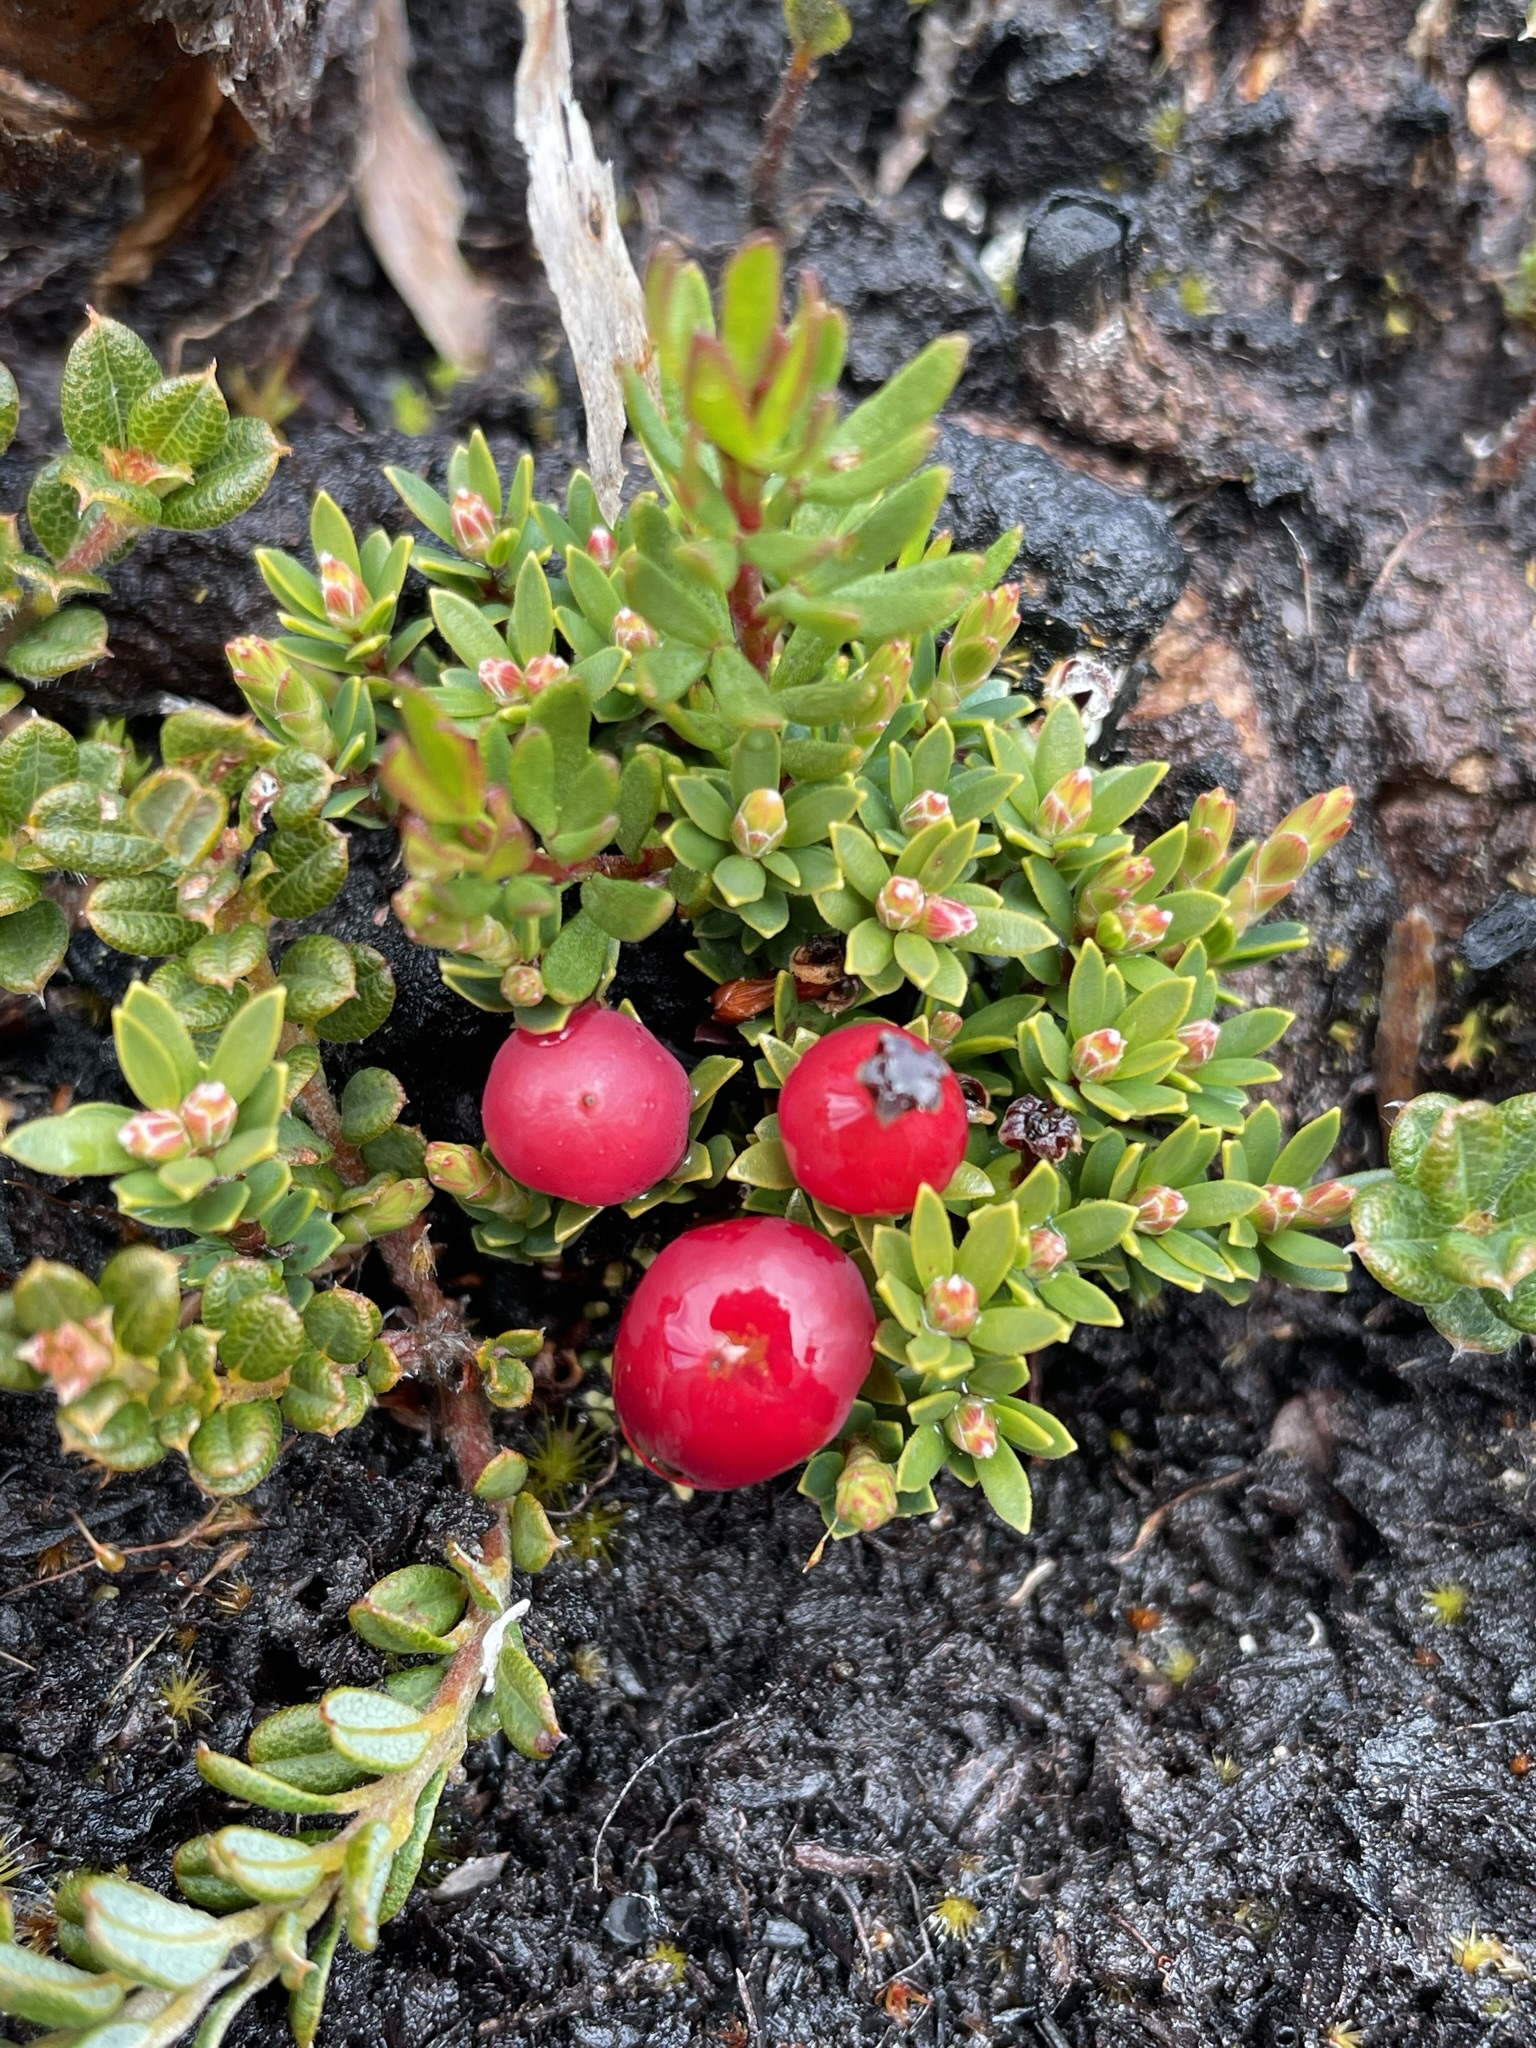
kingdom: Plantae
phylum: Tracheophyta
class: Magnoliopsida
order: Ericales
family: Ericaceae
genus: Pentachondra
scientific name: Pentachondra pumila
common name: Carpet-heath
